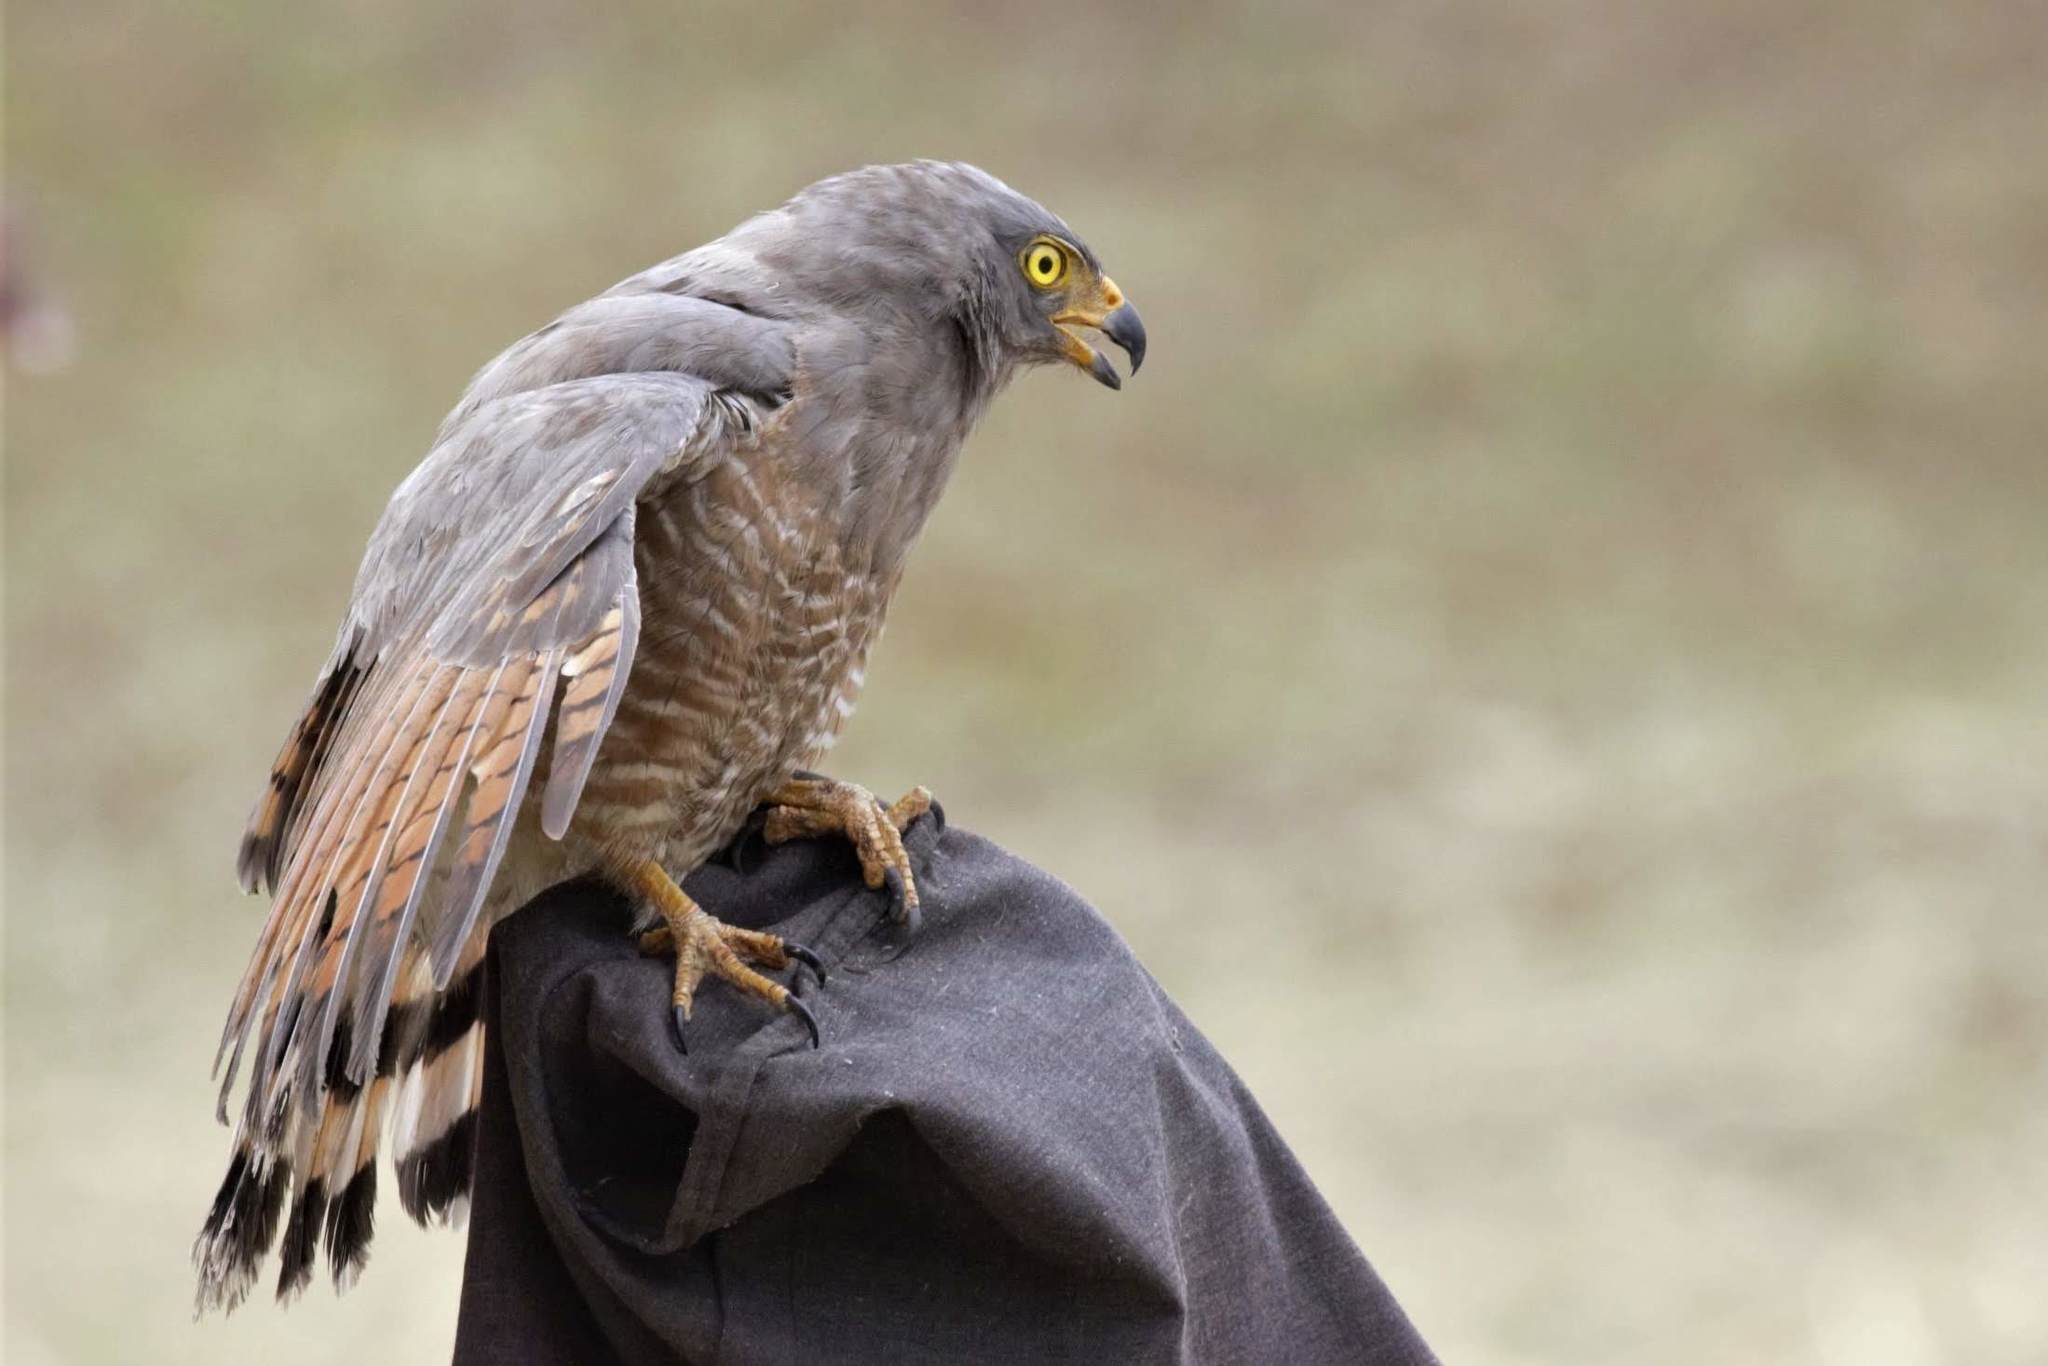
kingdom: Animalia
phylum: Chordata
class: Aves
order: Accipitriformes
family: Accipitridae
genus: Rupornis
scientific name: Rupornis magnirostris
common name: Roadside hawk
